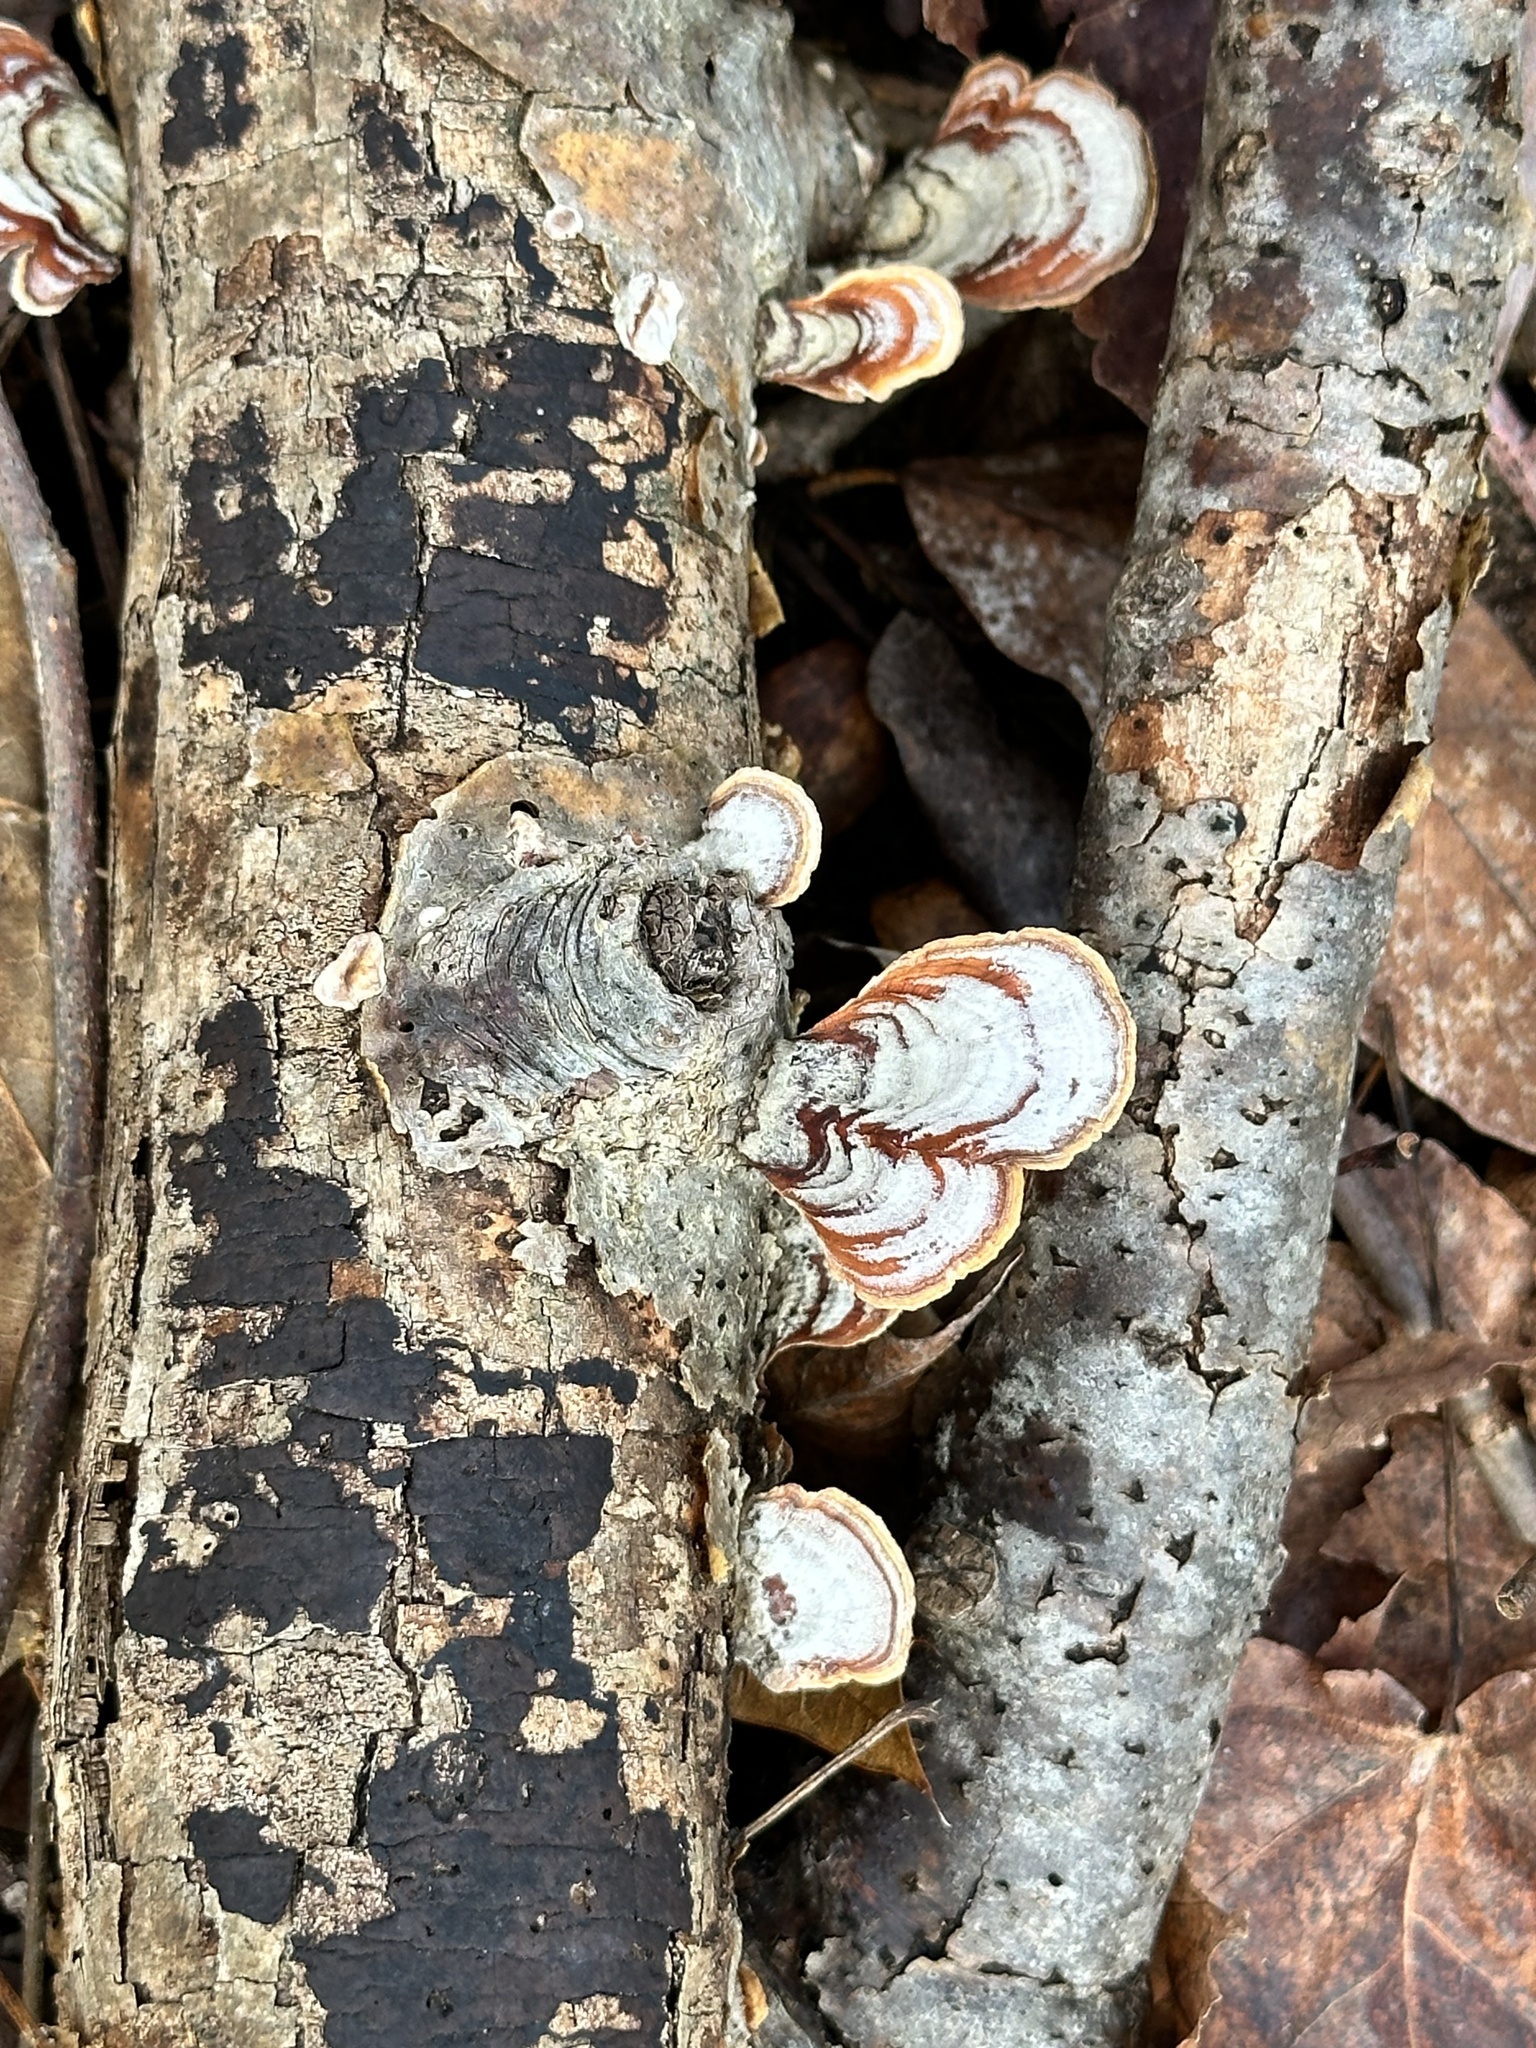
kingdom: Fungi
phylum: Basidiomycota
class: Agaricomycetes
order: Russulales
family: Stereaceae
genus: Stereum
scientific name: Stereum lobatum
